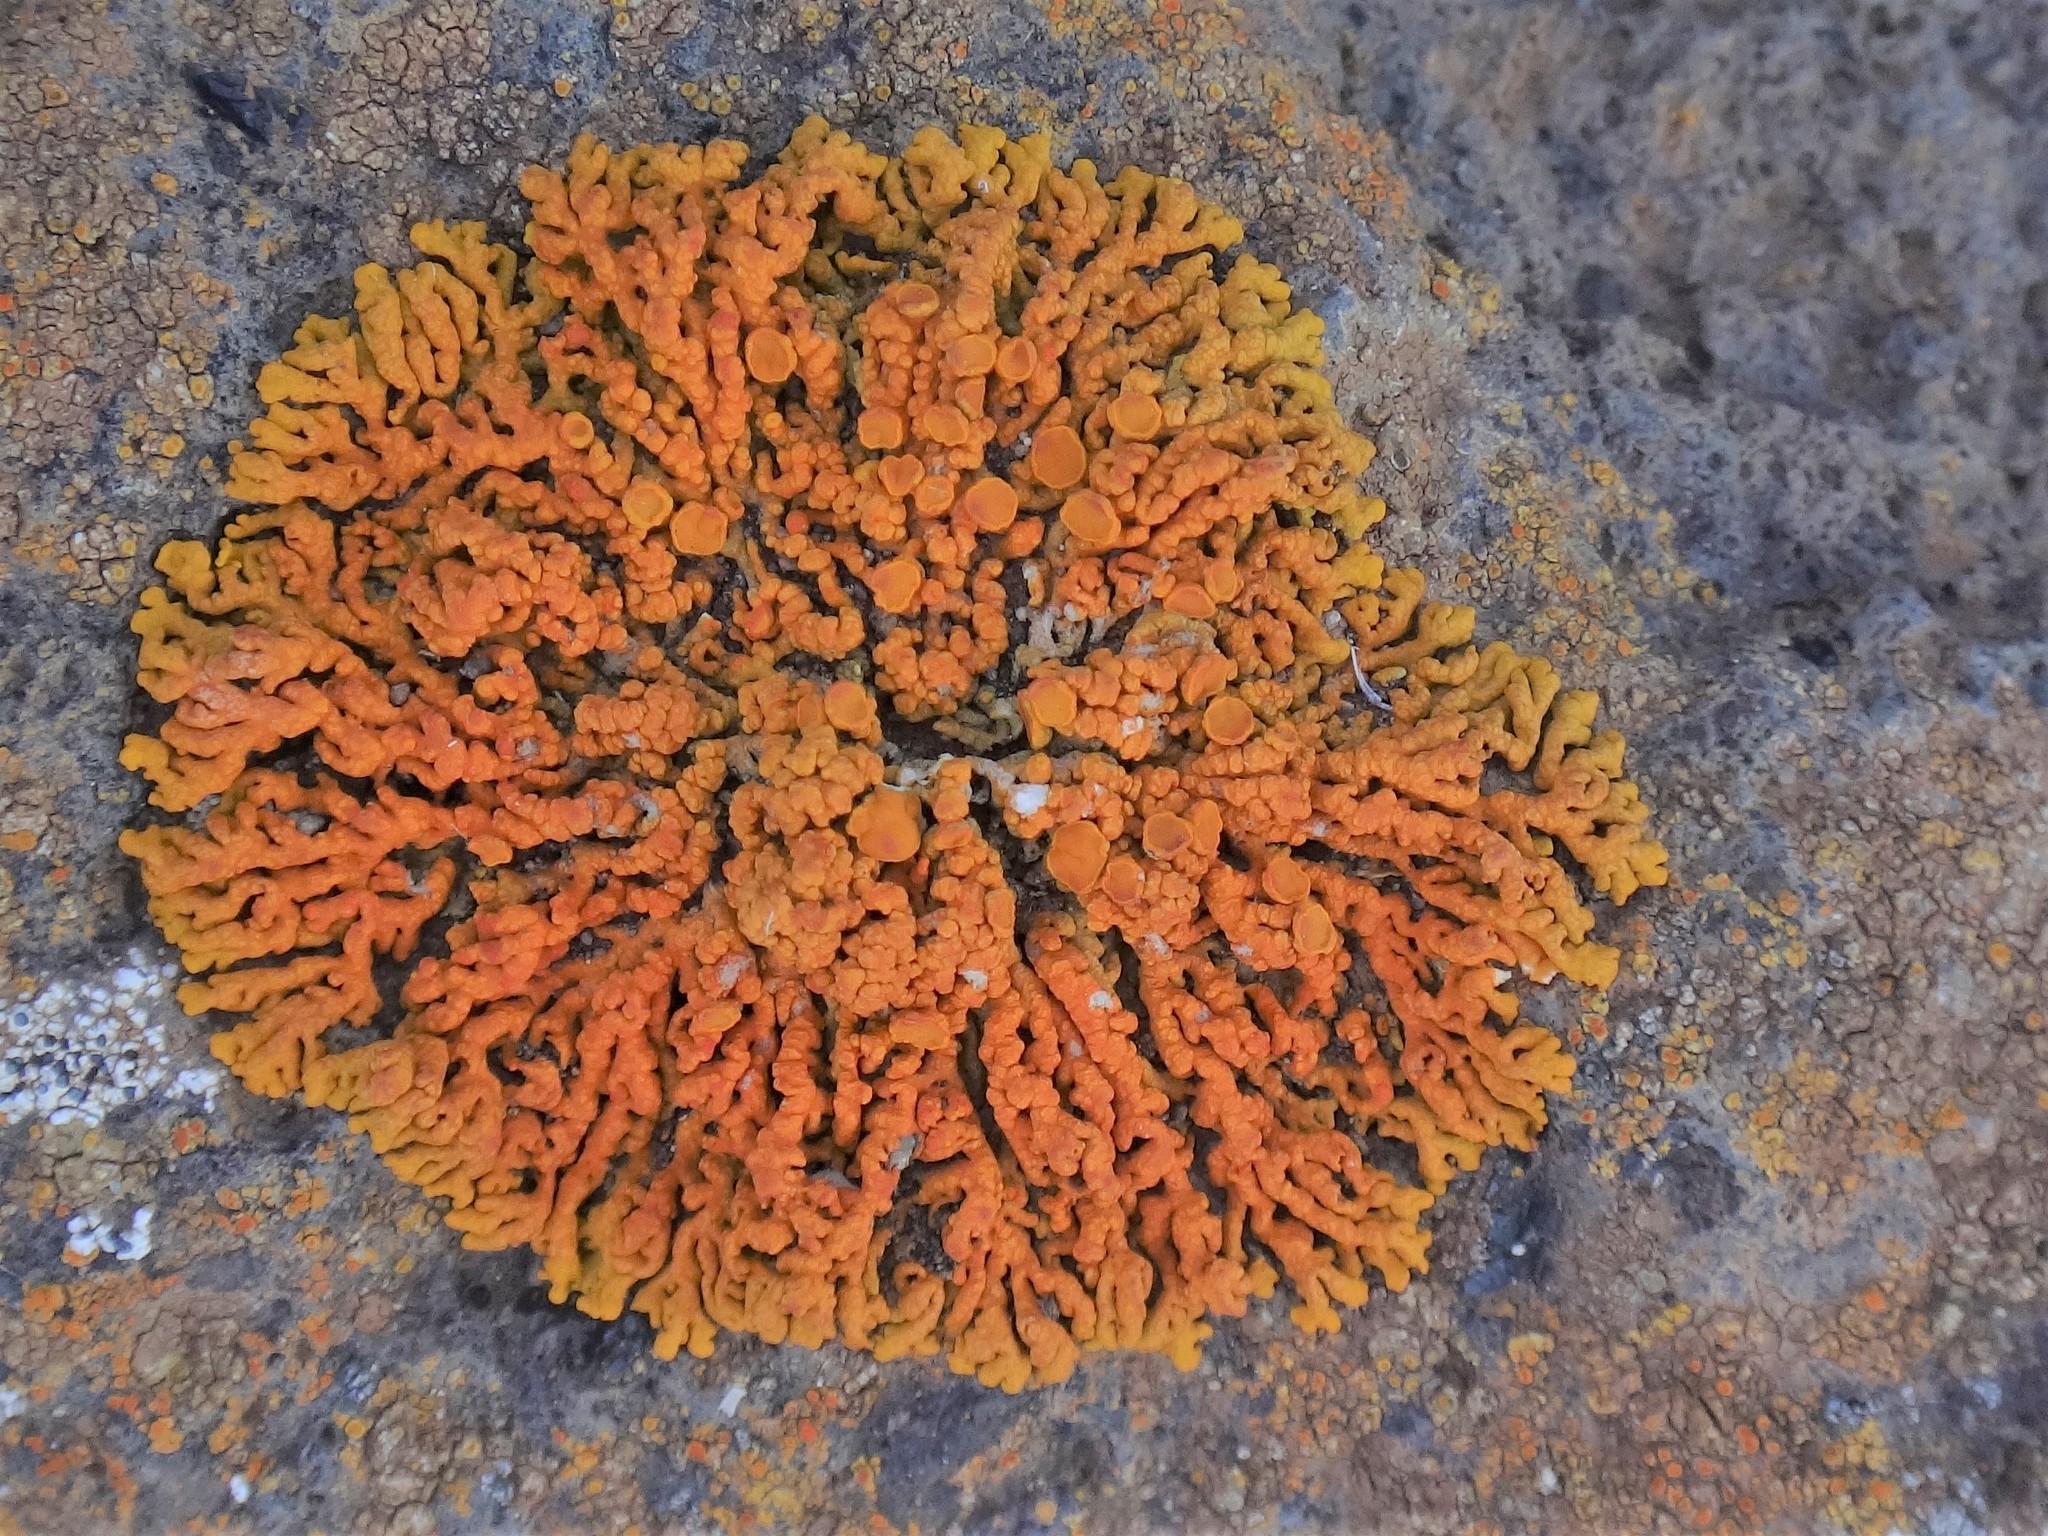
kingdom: Fungi
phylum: Ascomycota
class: Lecanoromycetes
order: Teloschistales
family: Teloschistaceae
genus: Xanthoria
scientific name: Xanthoria elegans
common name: Elegant sunburst lichen
